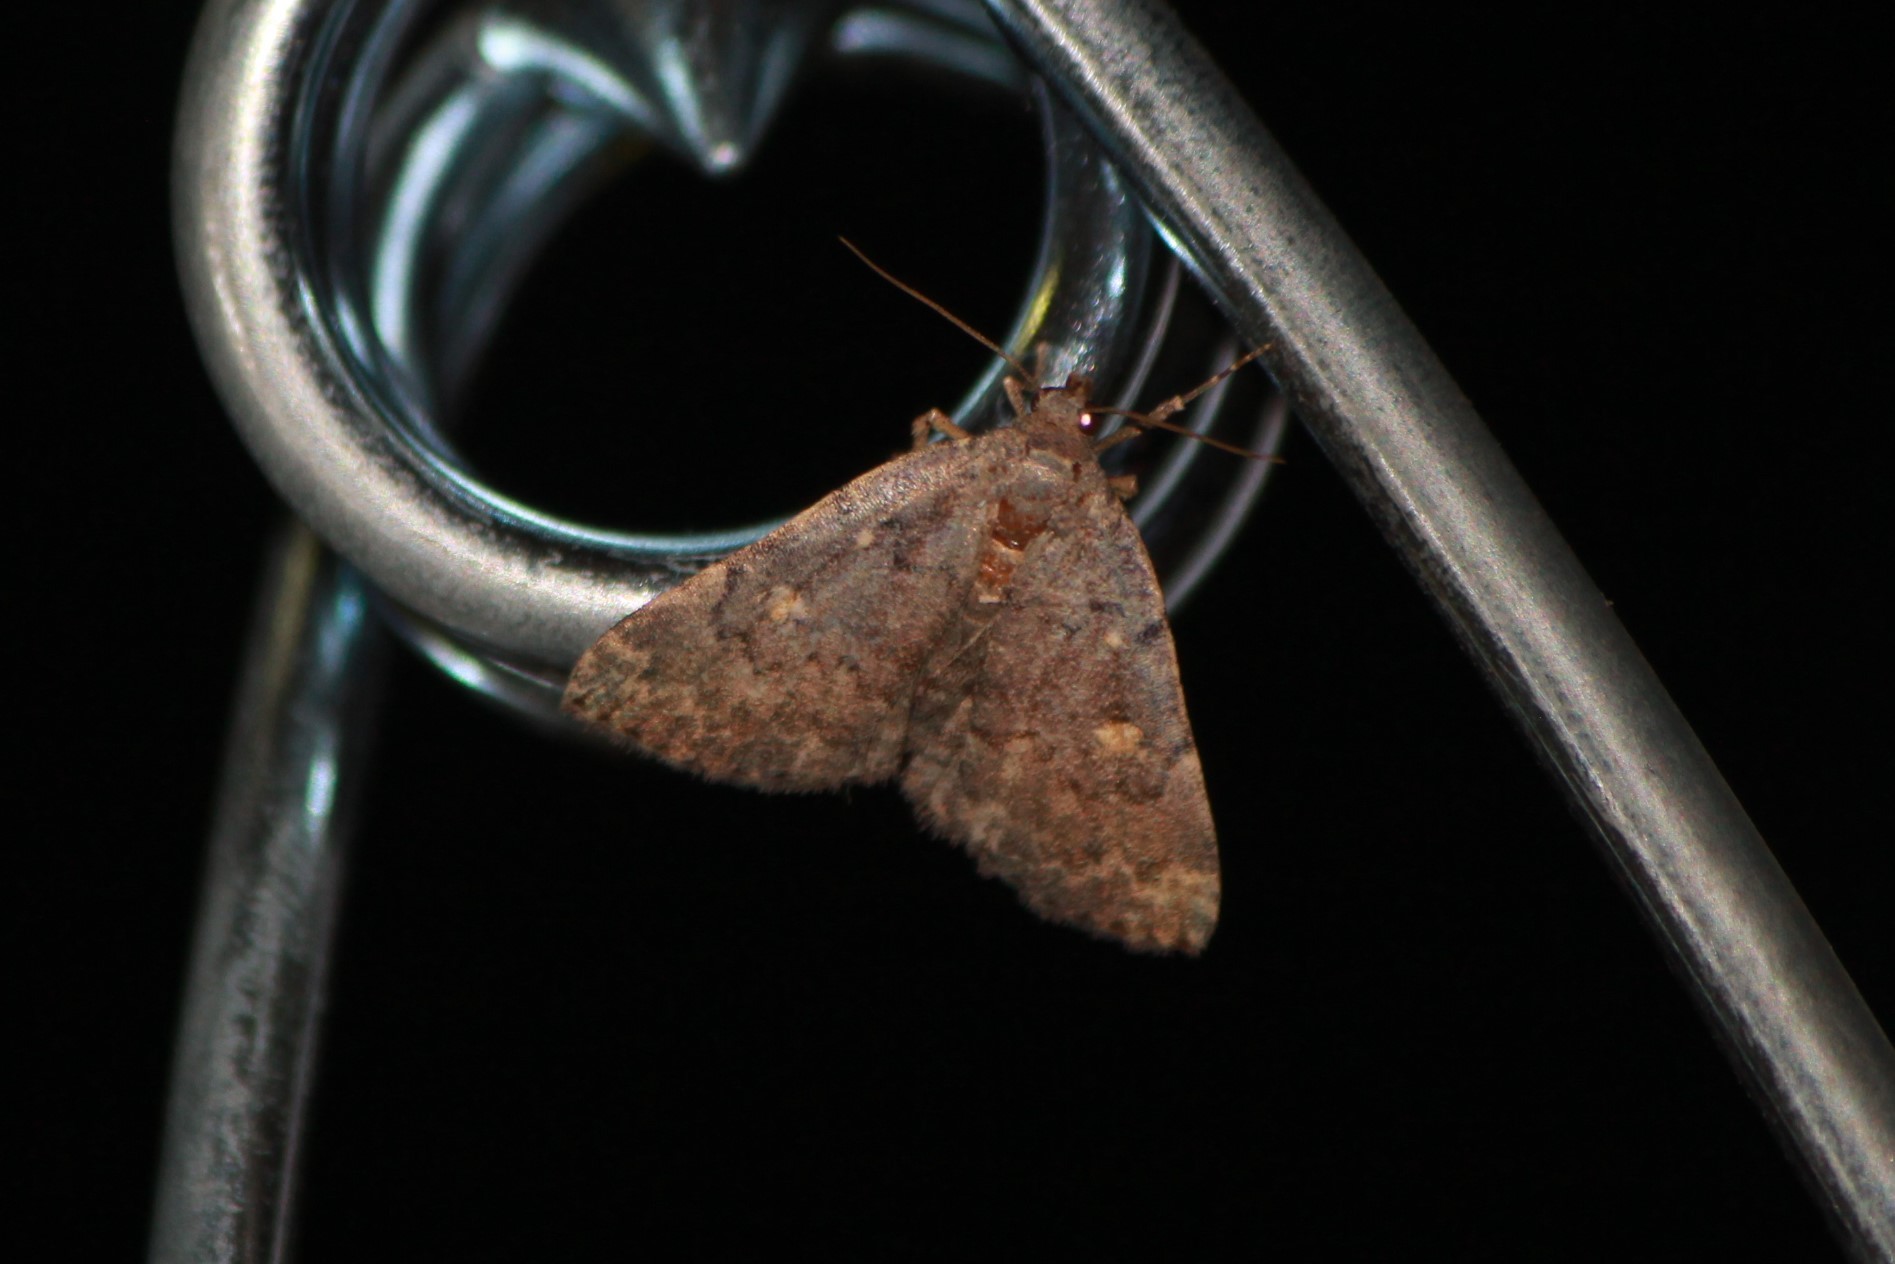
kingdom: Animalia
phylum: Arthropoda
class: Insecta
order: Lepidoptera
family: Erebidae
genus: Idia
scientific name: Idia aemula
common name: Common idia moth
